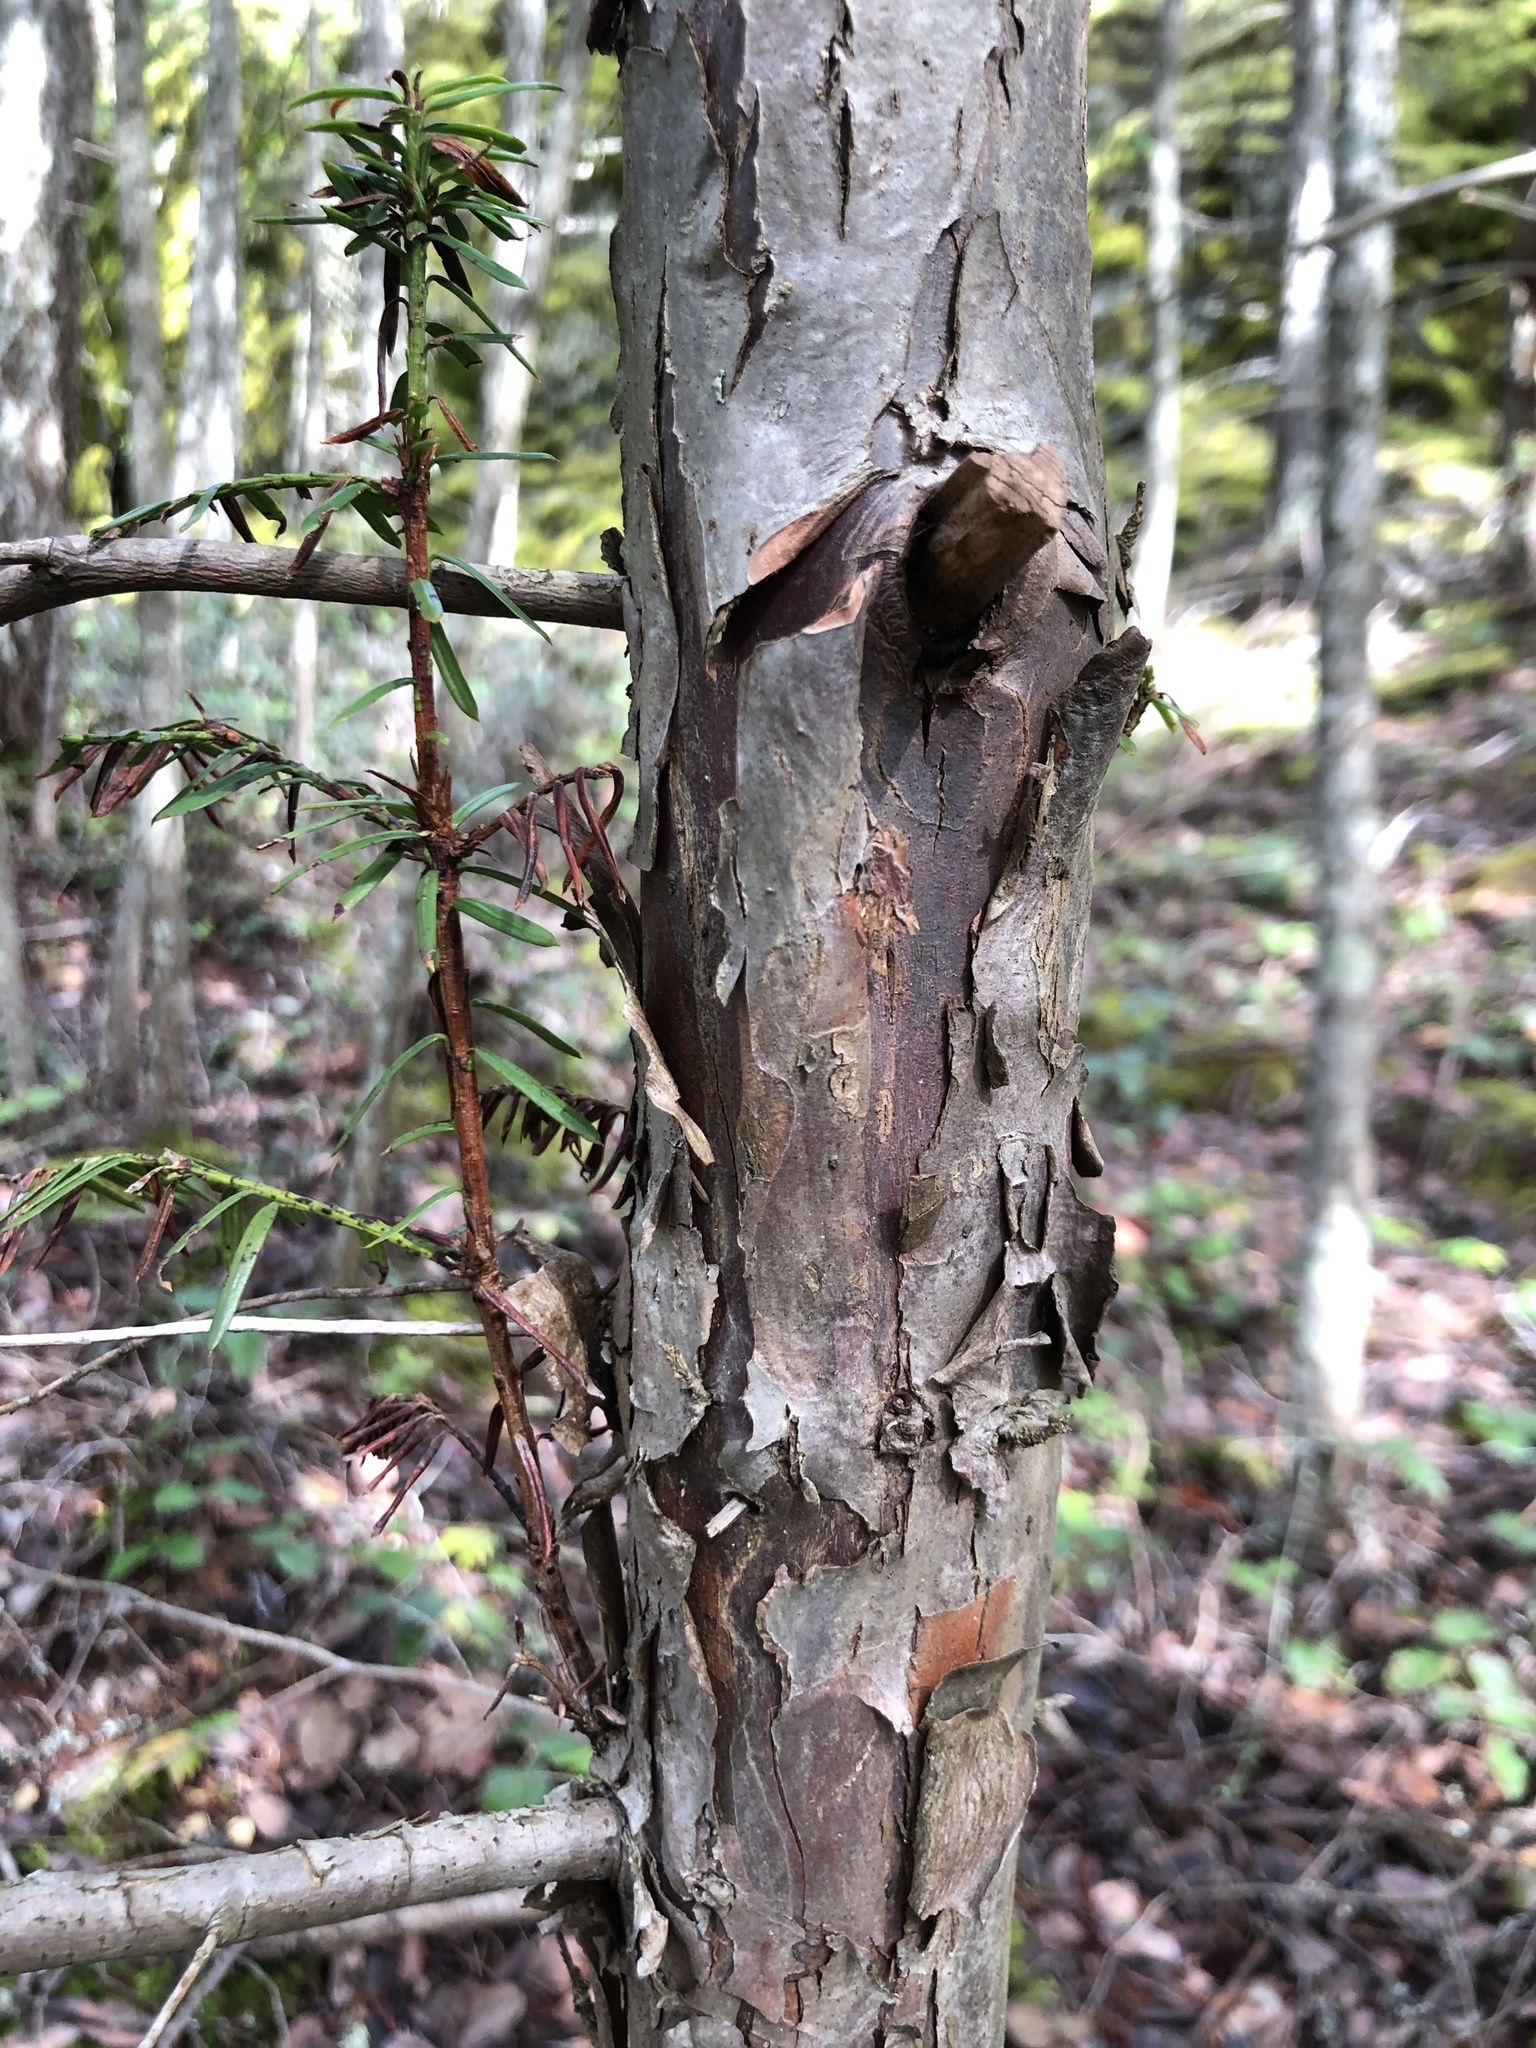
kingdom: Plantae
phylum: Tracheophyta
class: Pinopsida
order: Pinales
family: Taxaceae
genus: Taxus
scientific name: Taxus brevifolia
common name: Pacific yew
